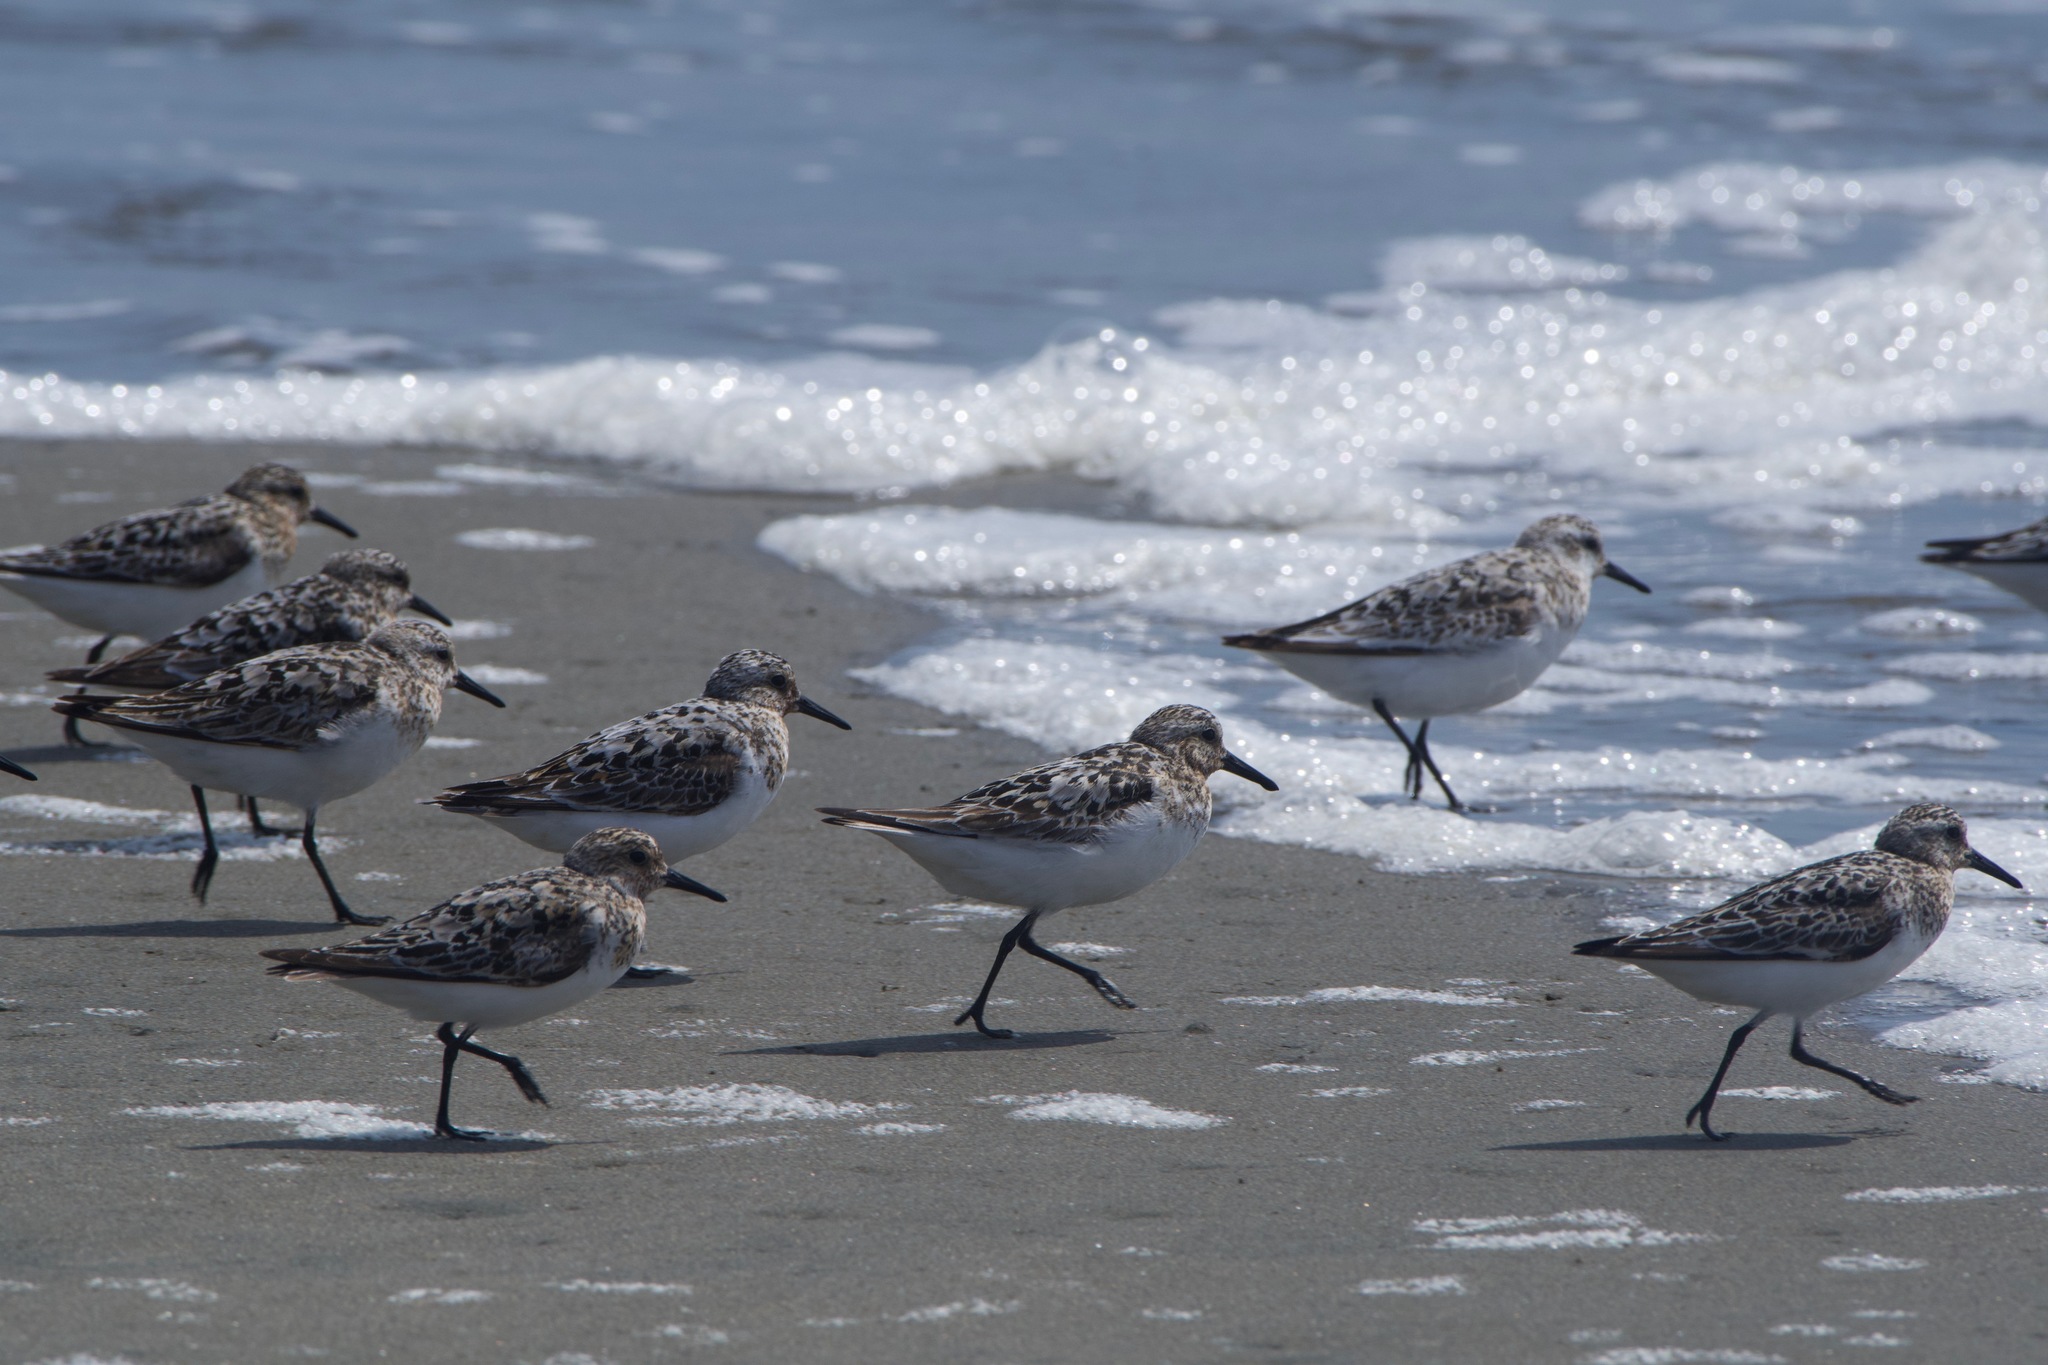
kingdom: Animalia
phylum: Chordata
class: Aves
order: Charadriiformes
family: Scolopacidae
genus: Calidris
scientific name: Calidris alba
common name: Sanderling
